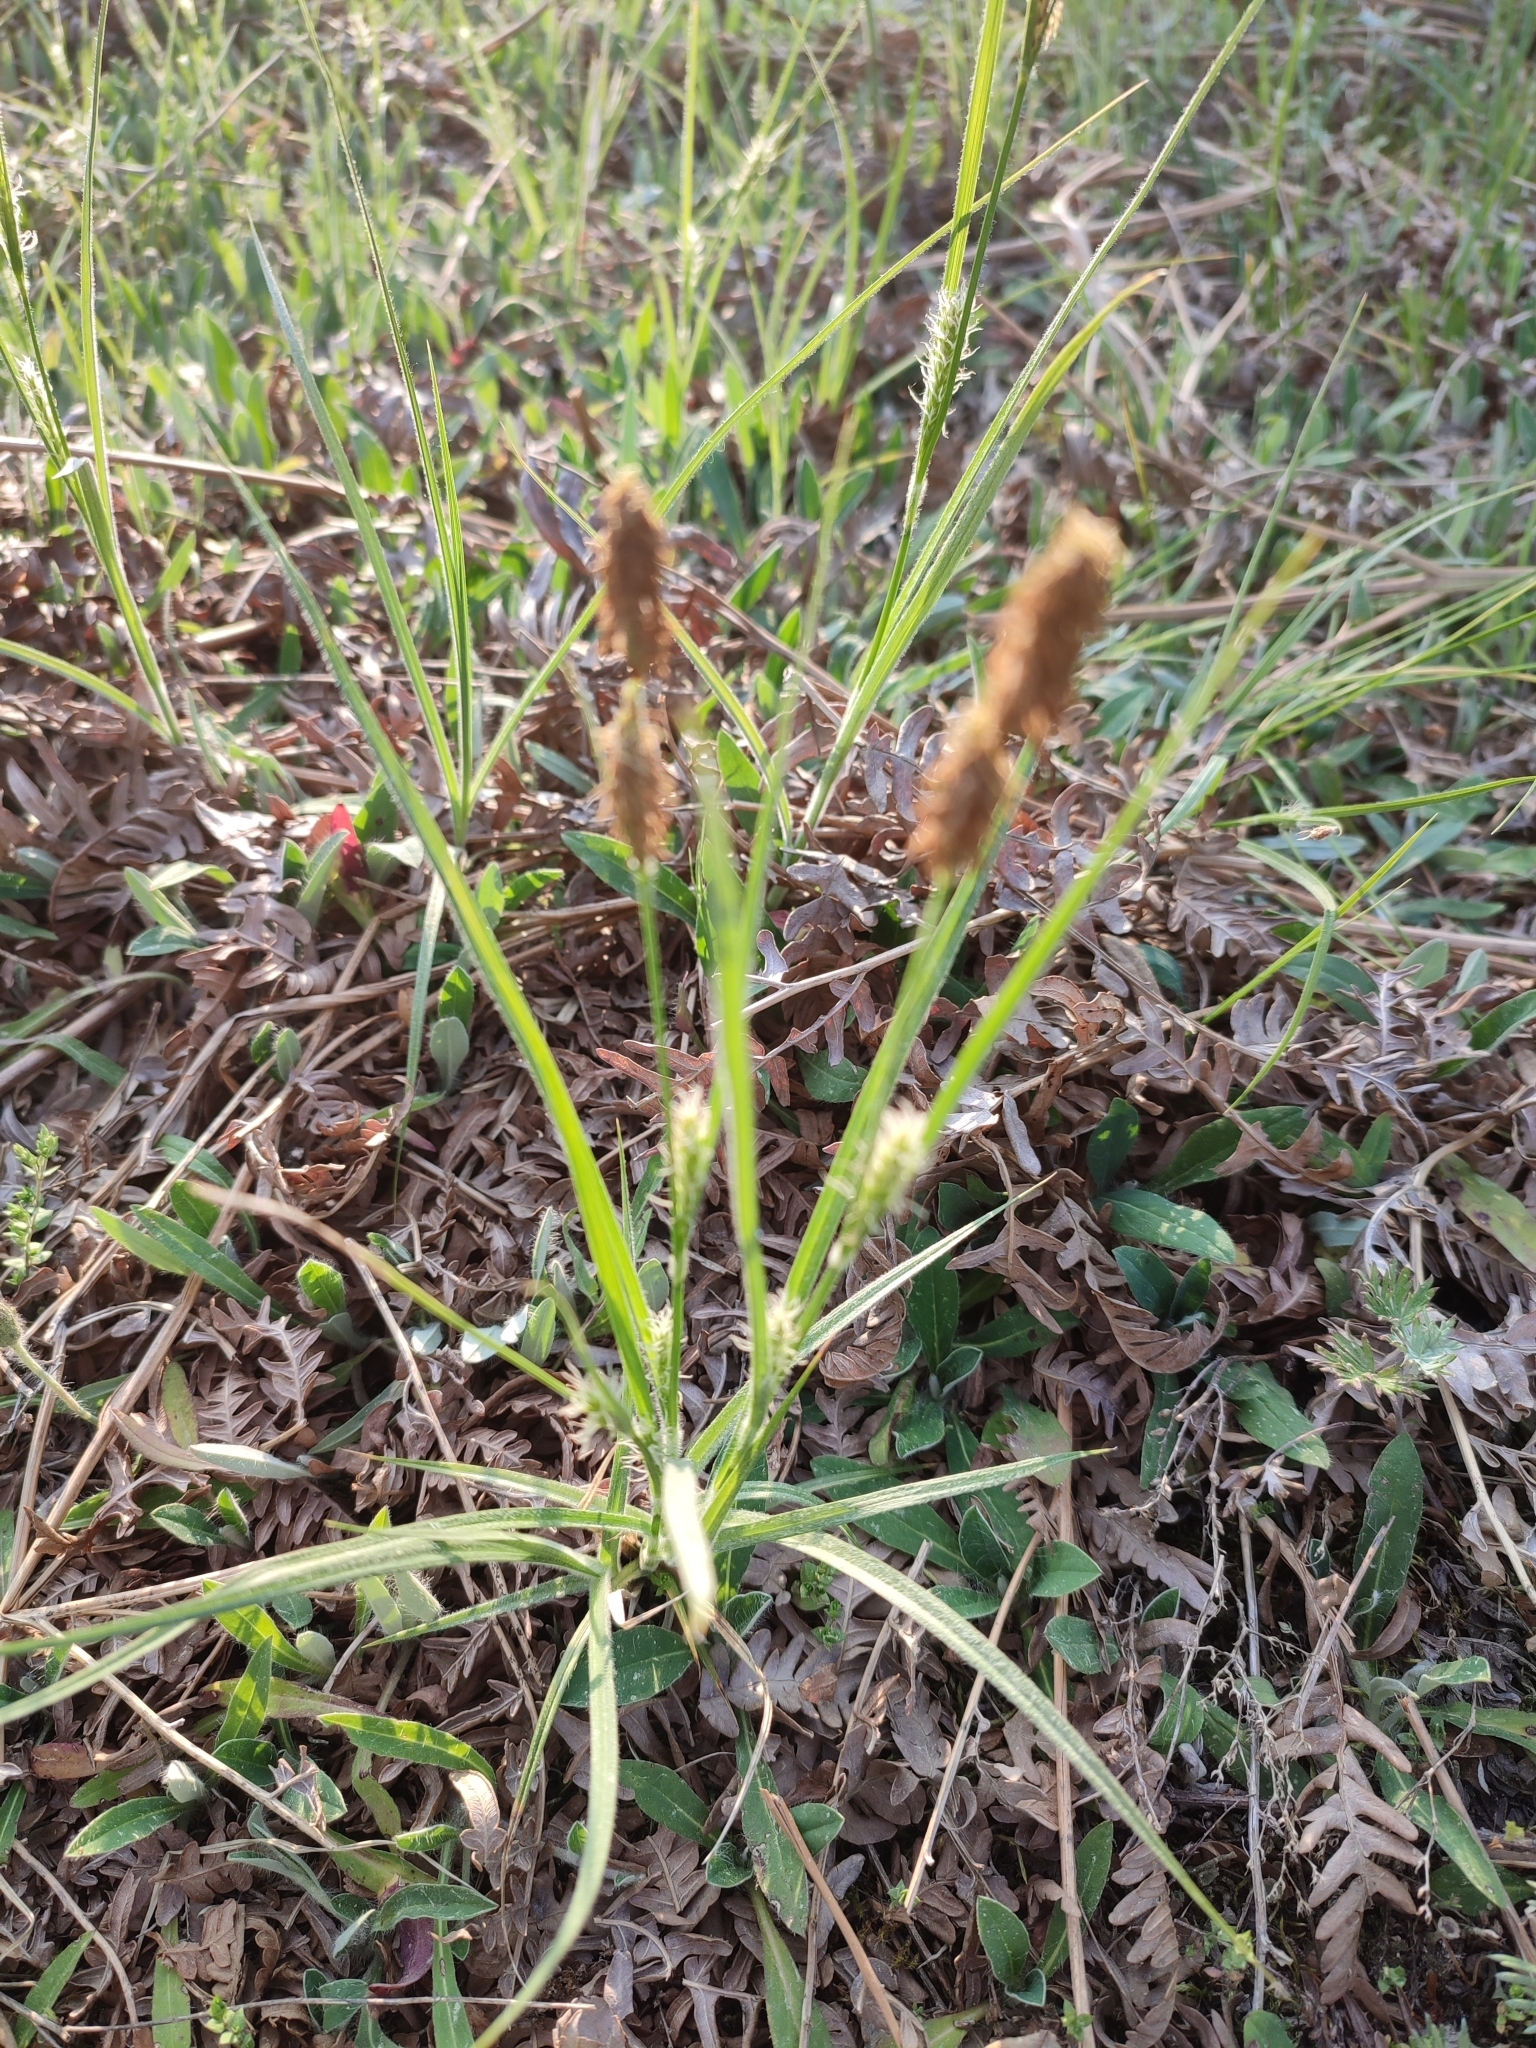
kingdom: Plantae
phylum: Tracheophyta
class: Liliopsida
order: Poales
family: Cyperaceae
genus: Carex
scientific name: Carex hirta
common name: Hairy sedge
